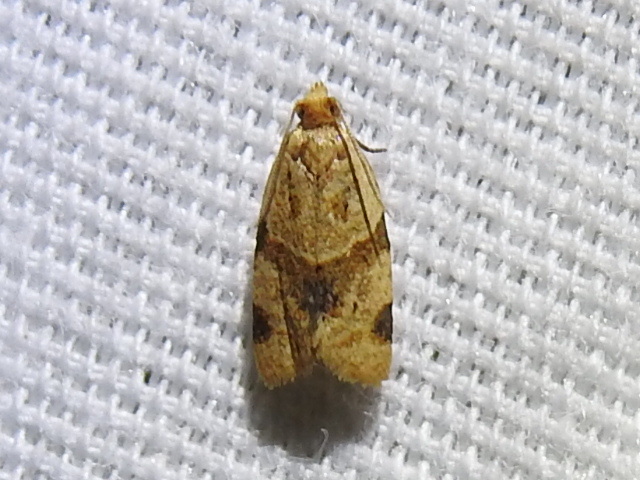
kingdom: Animalia
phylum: Arthropoda
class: Insecta
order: Lepidoptera
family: Tortricidae
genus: Clepsis
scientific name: Clepsis peritana
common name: Garden tortrix
